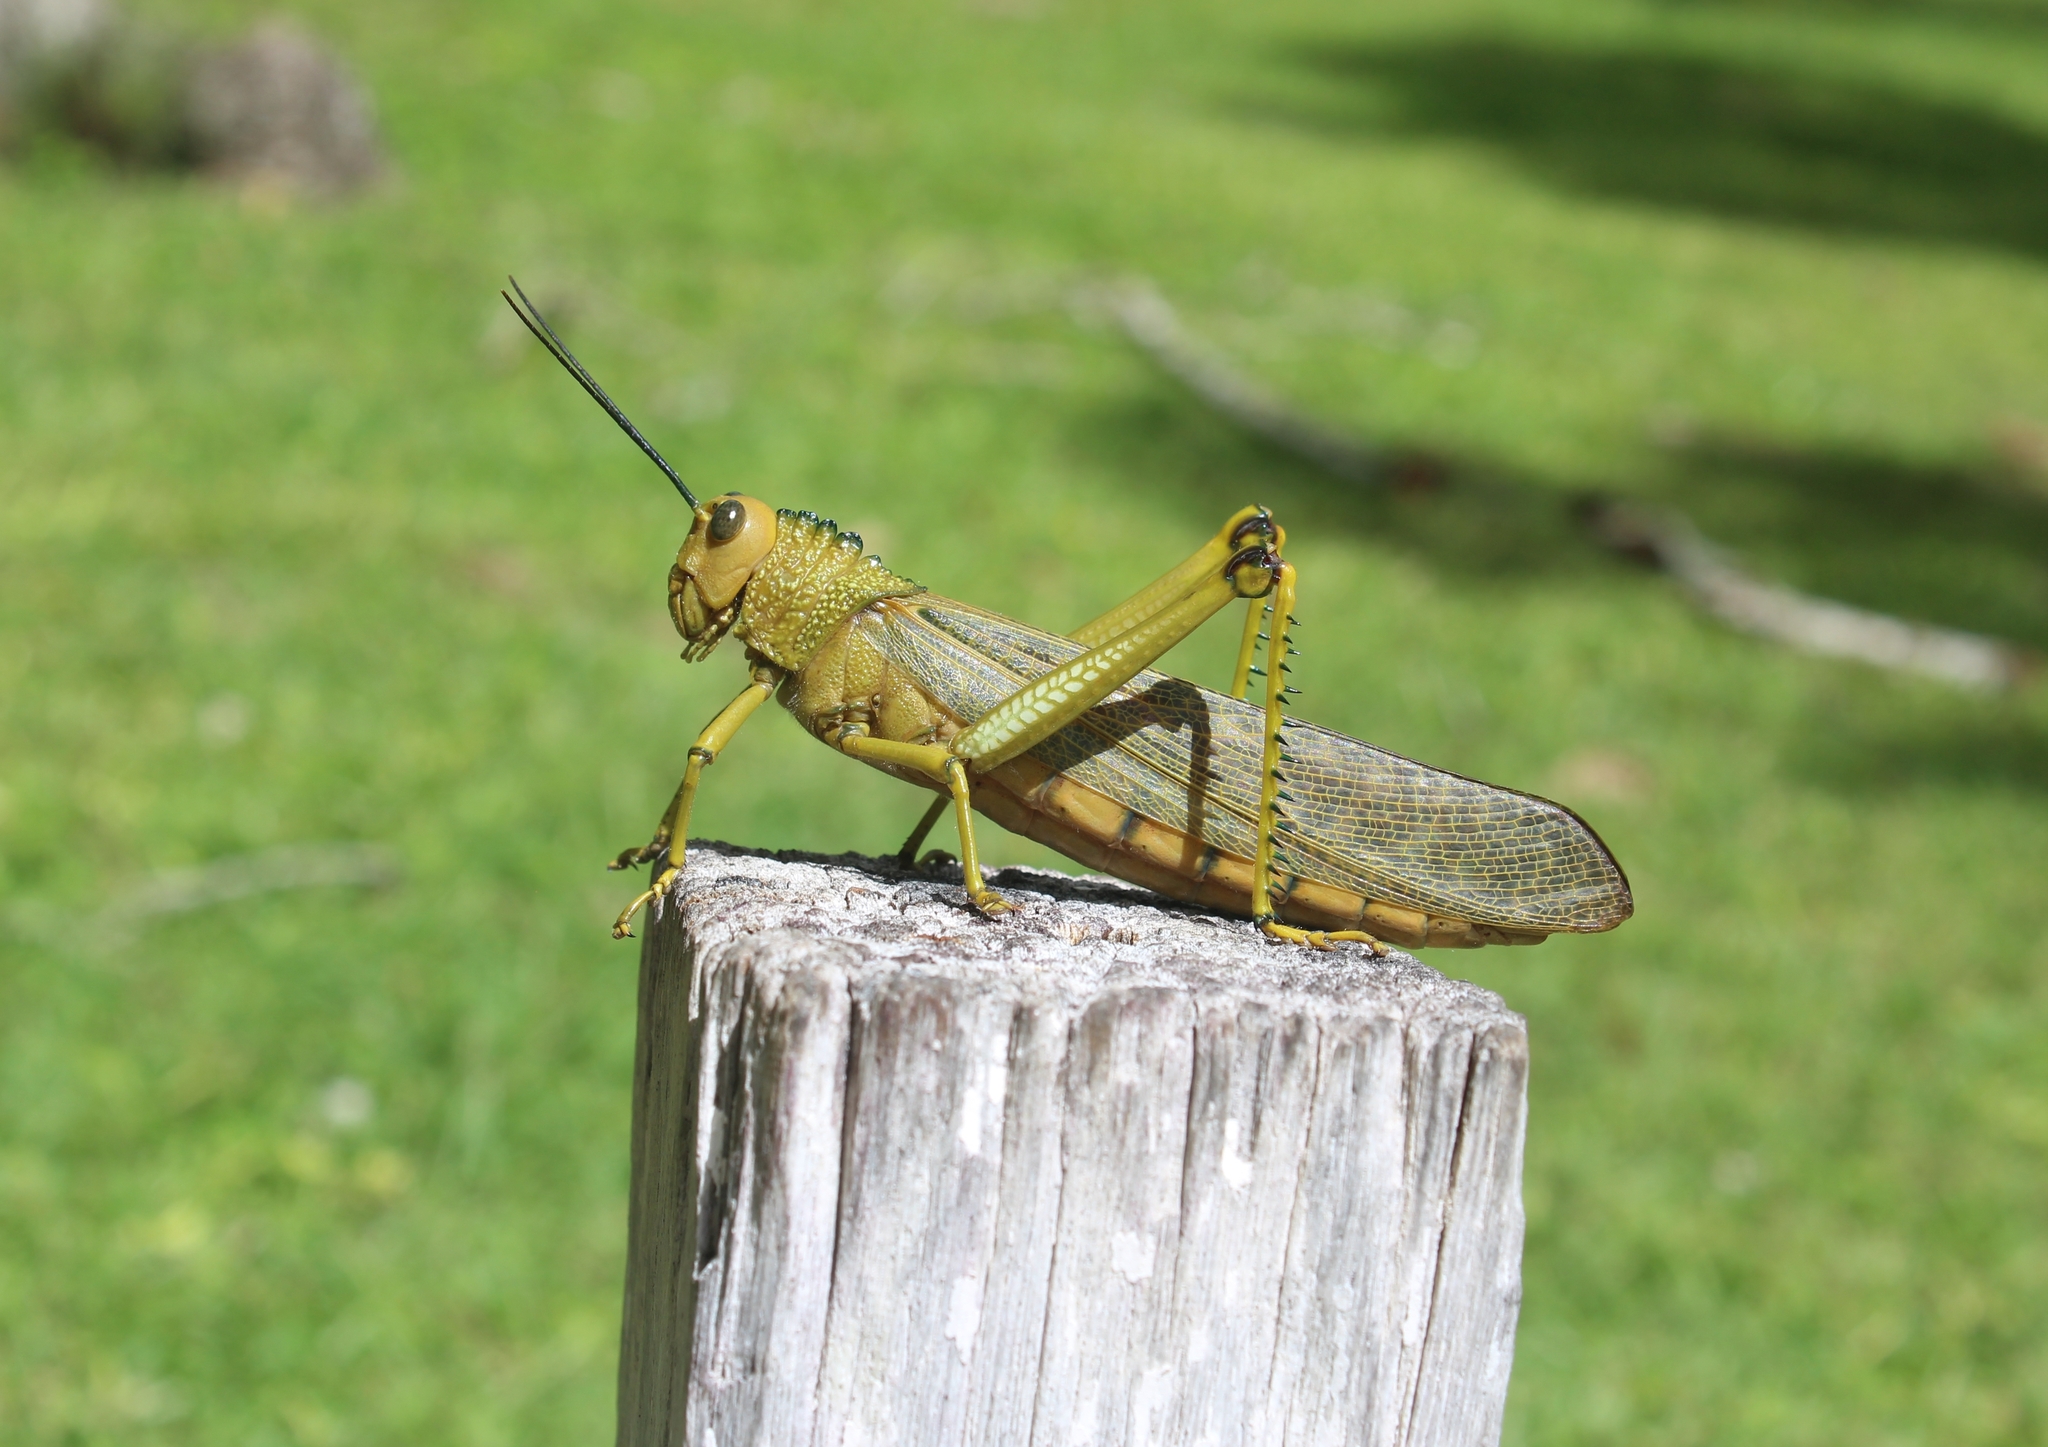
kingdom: Animalia
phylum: Arthropoda
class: Insecta
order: Orthoptera
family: Romaleidae
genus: Tropidacris
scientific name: Tropidacris cristata
